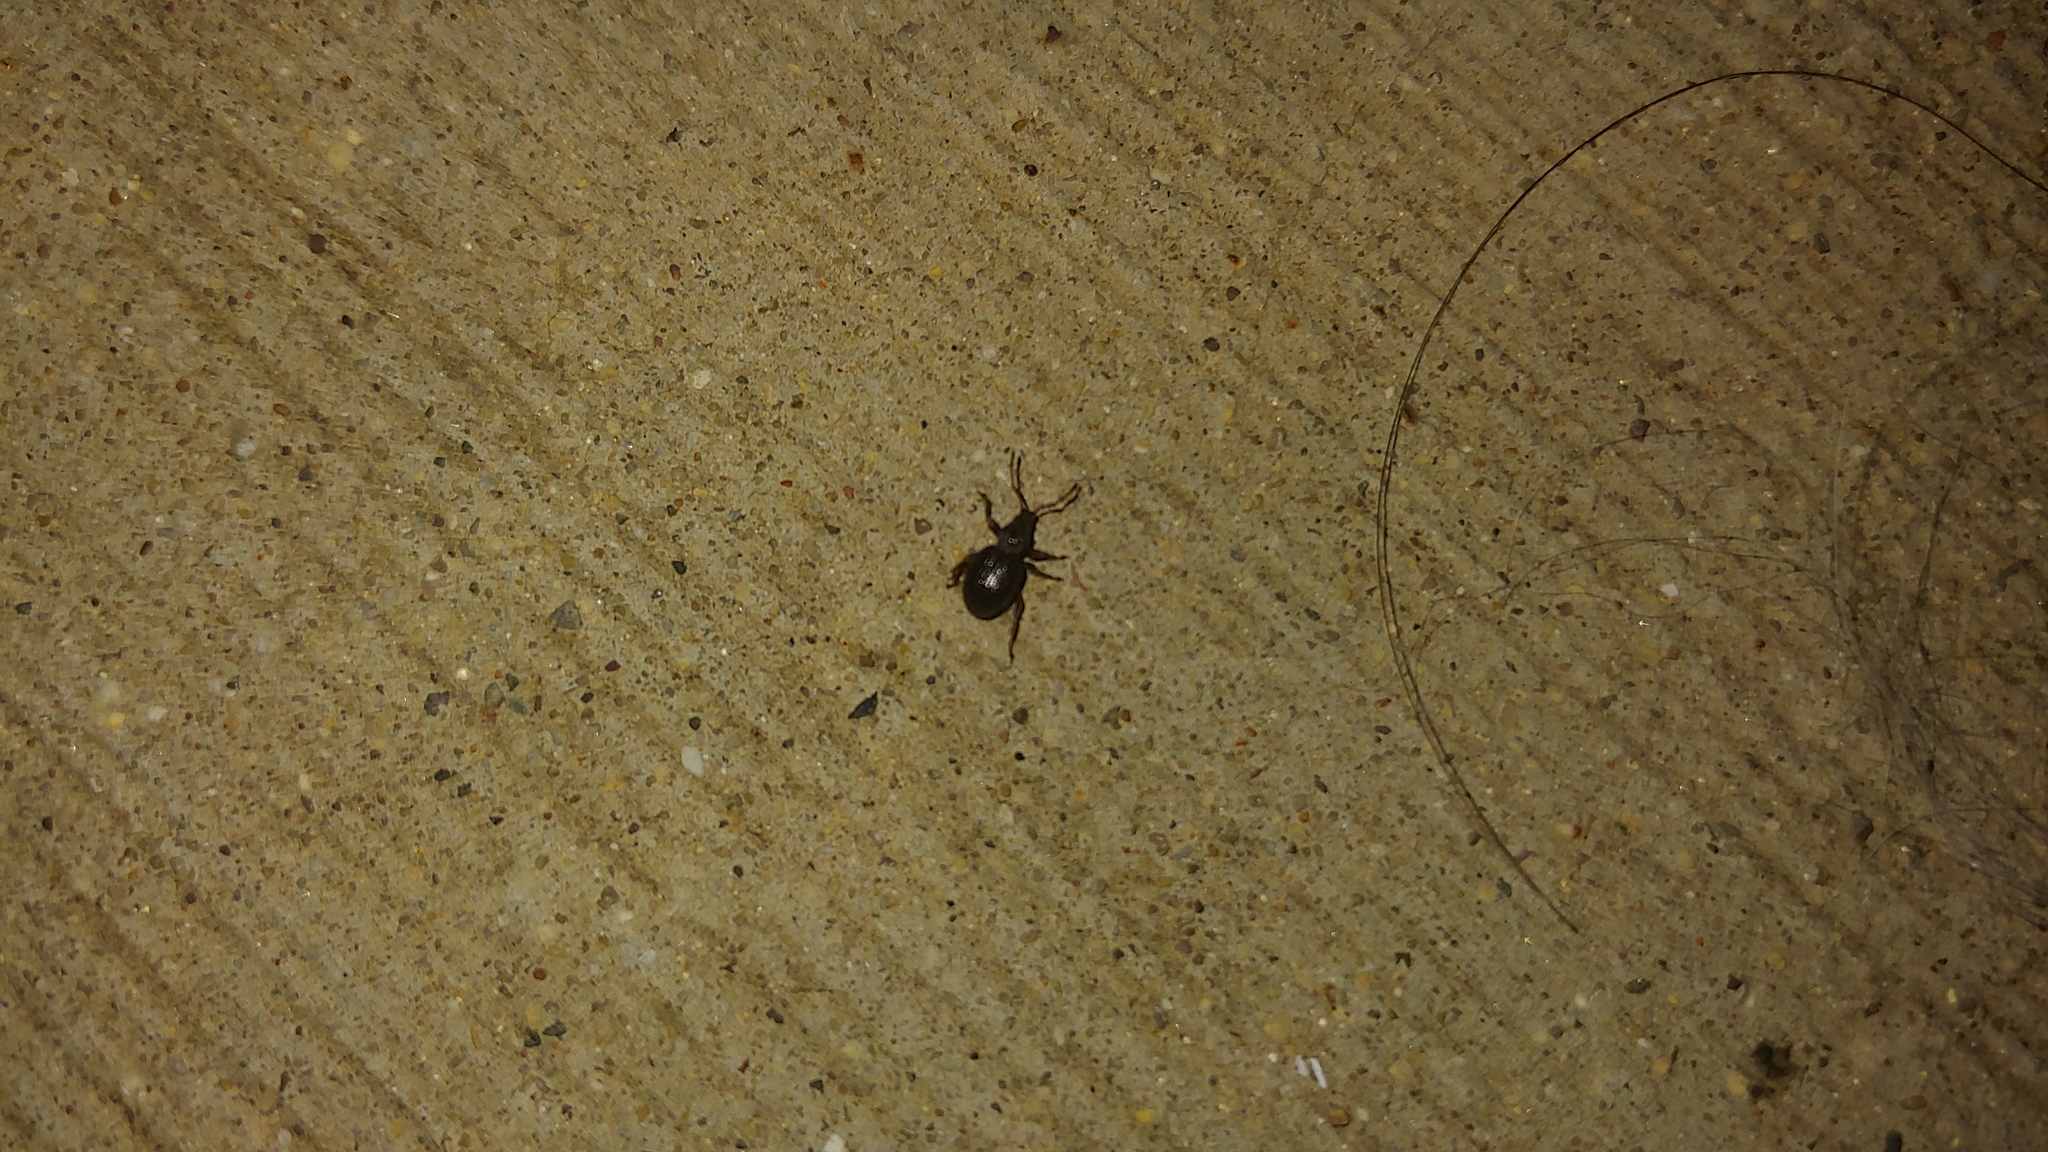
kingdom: Animalia
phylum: Arthropoda
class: Insecta
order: Coleoptera
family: Curculionidae
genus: Otiorhynchus
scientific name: Otiorhynchus ovatus
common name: Strawberry root weevil
